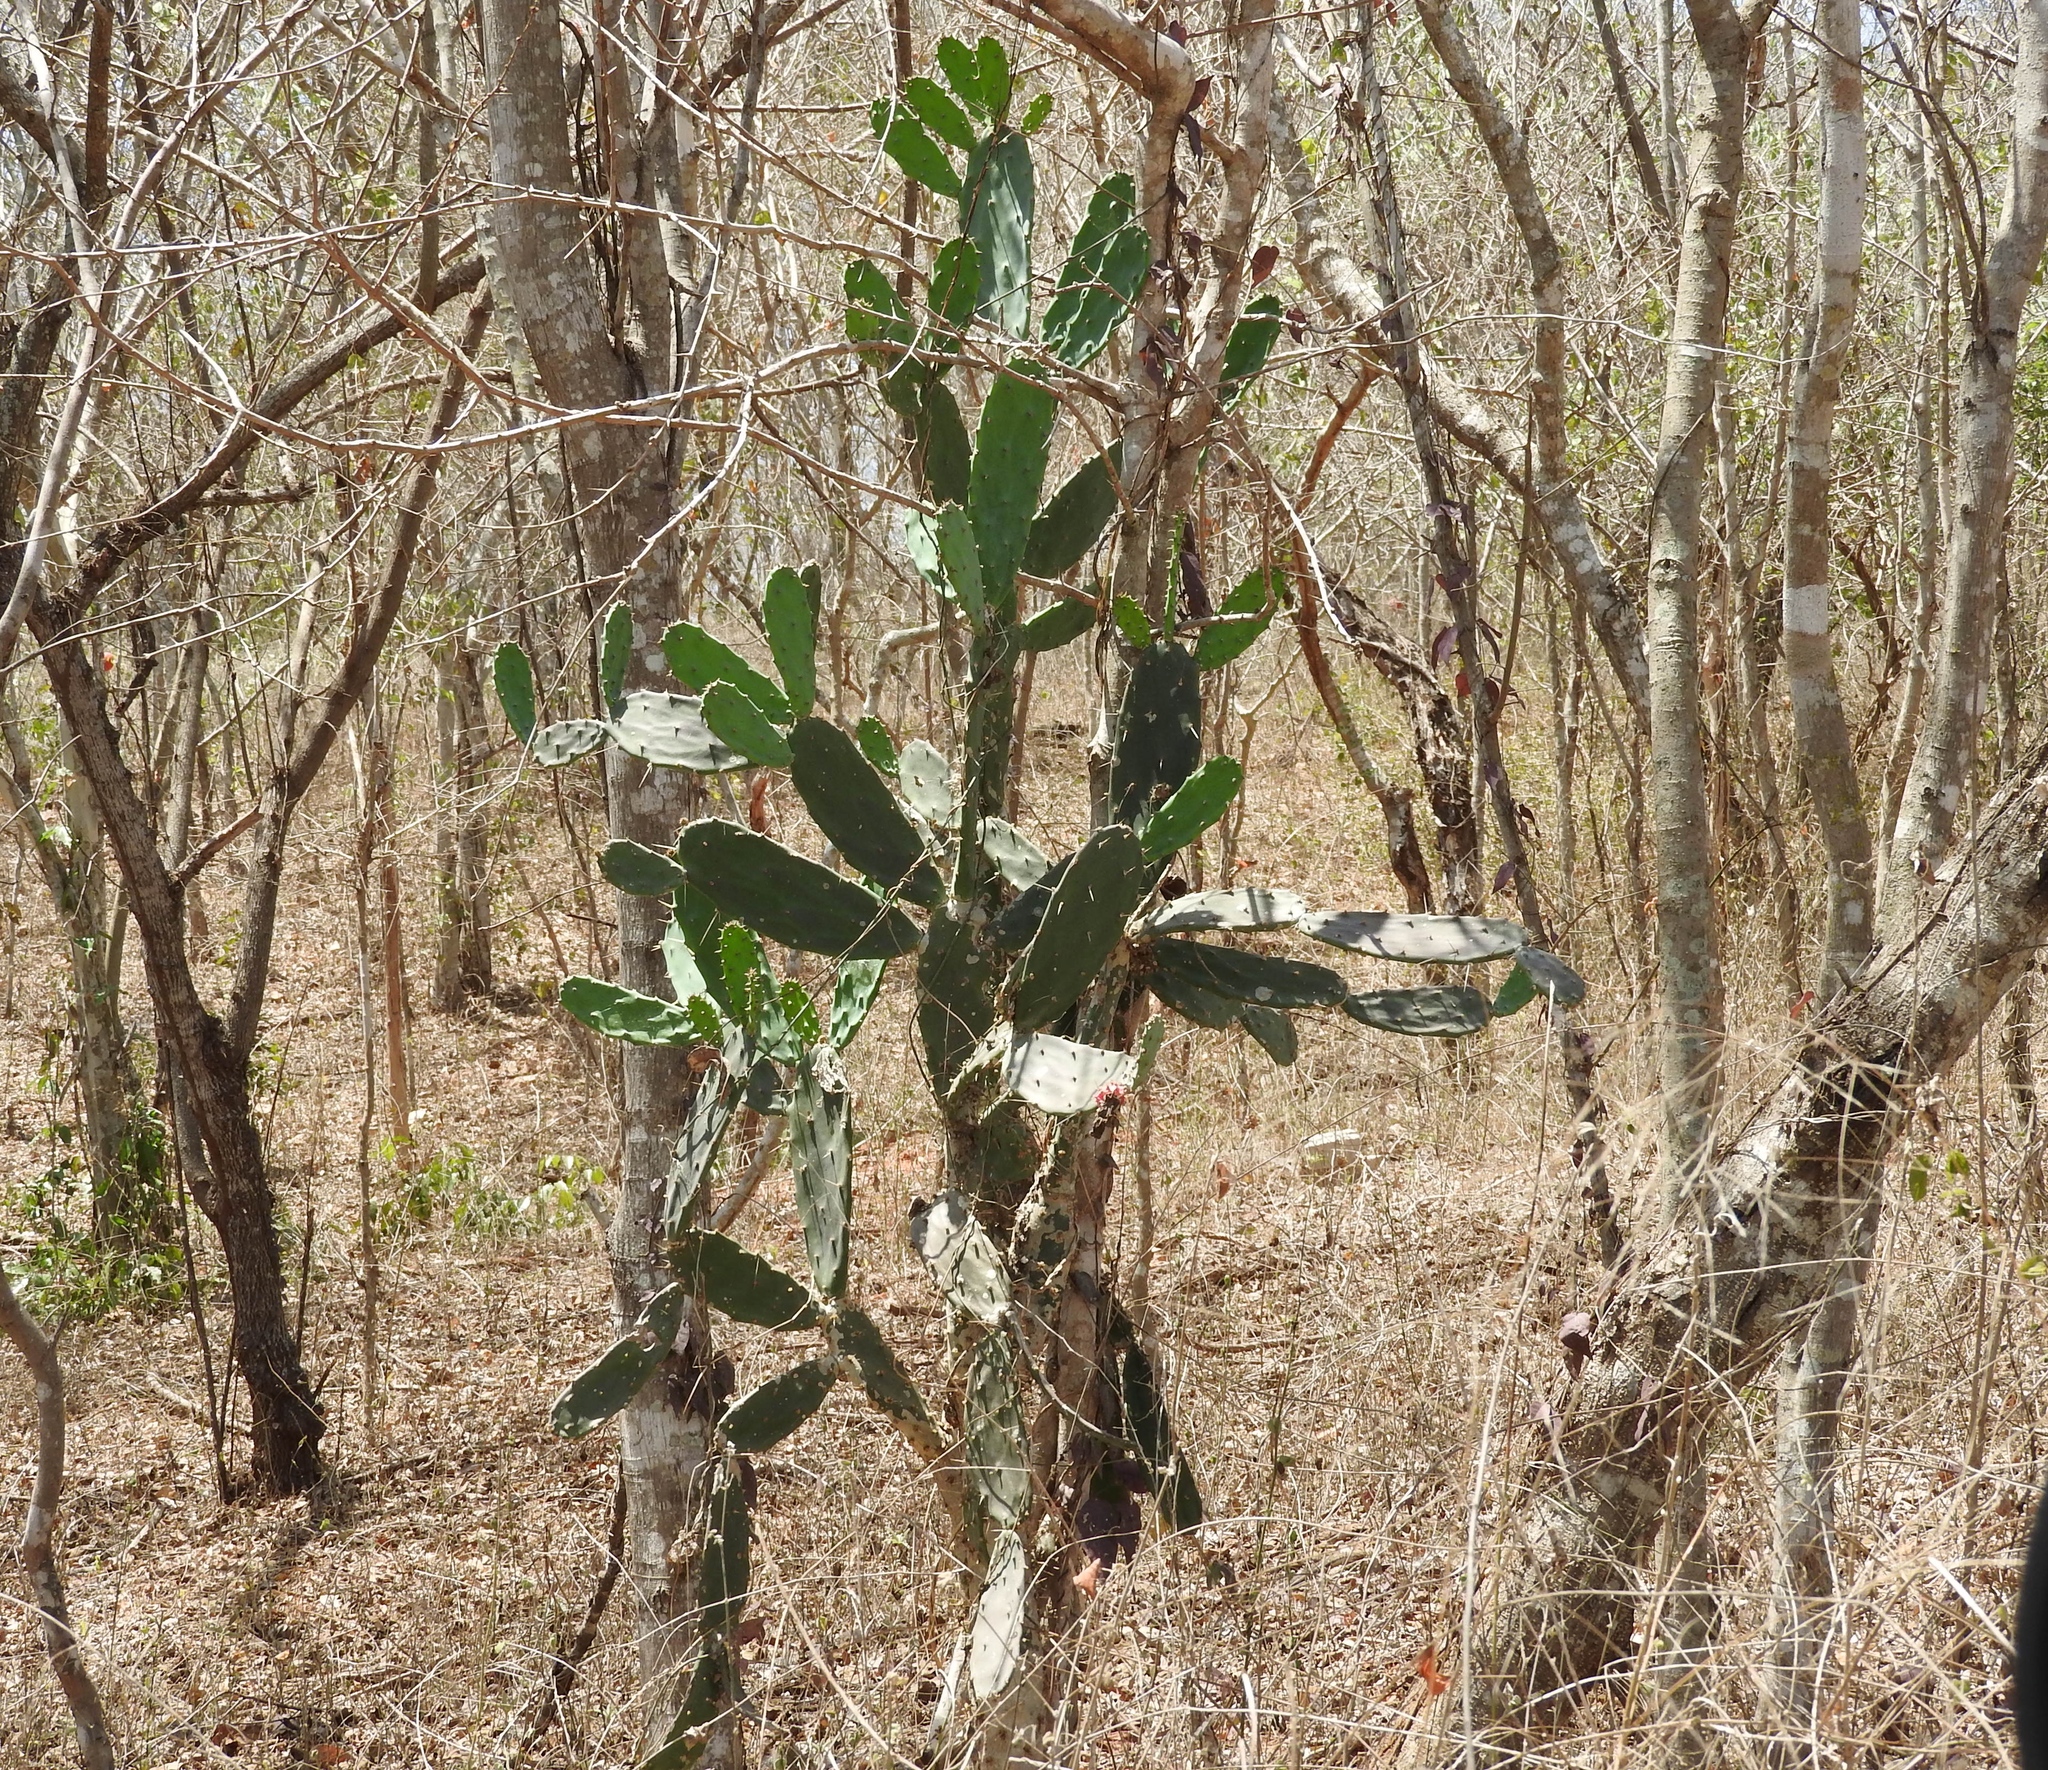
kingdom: Plantae
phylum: Tracheophyta
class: Magnoliopsida
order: Caryophyllales
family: Cactaceae
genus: Opuntia
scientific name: Opuntia hyptiacantha
